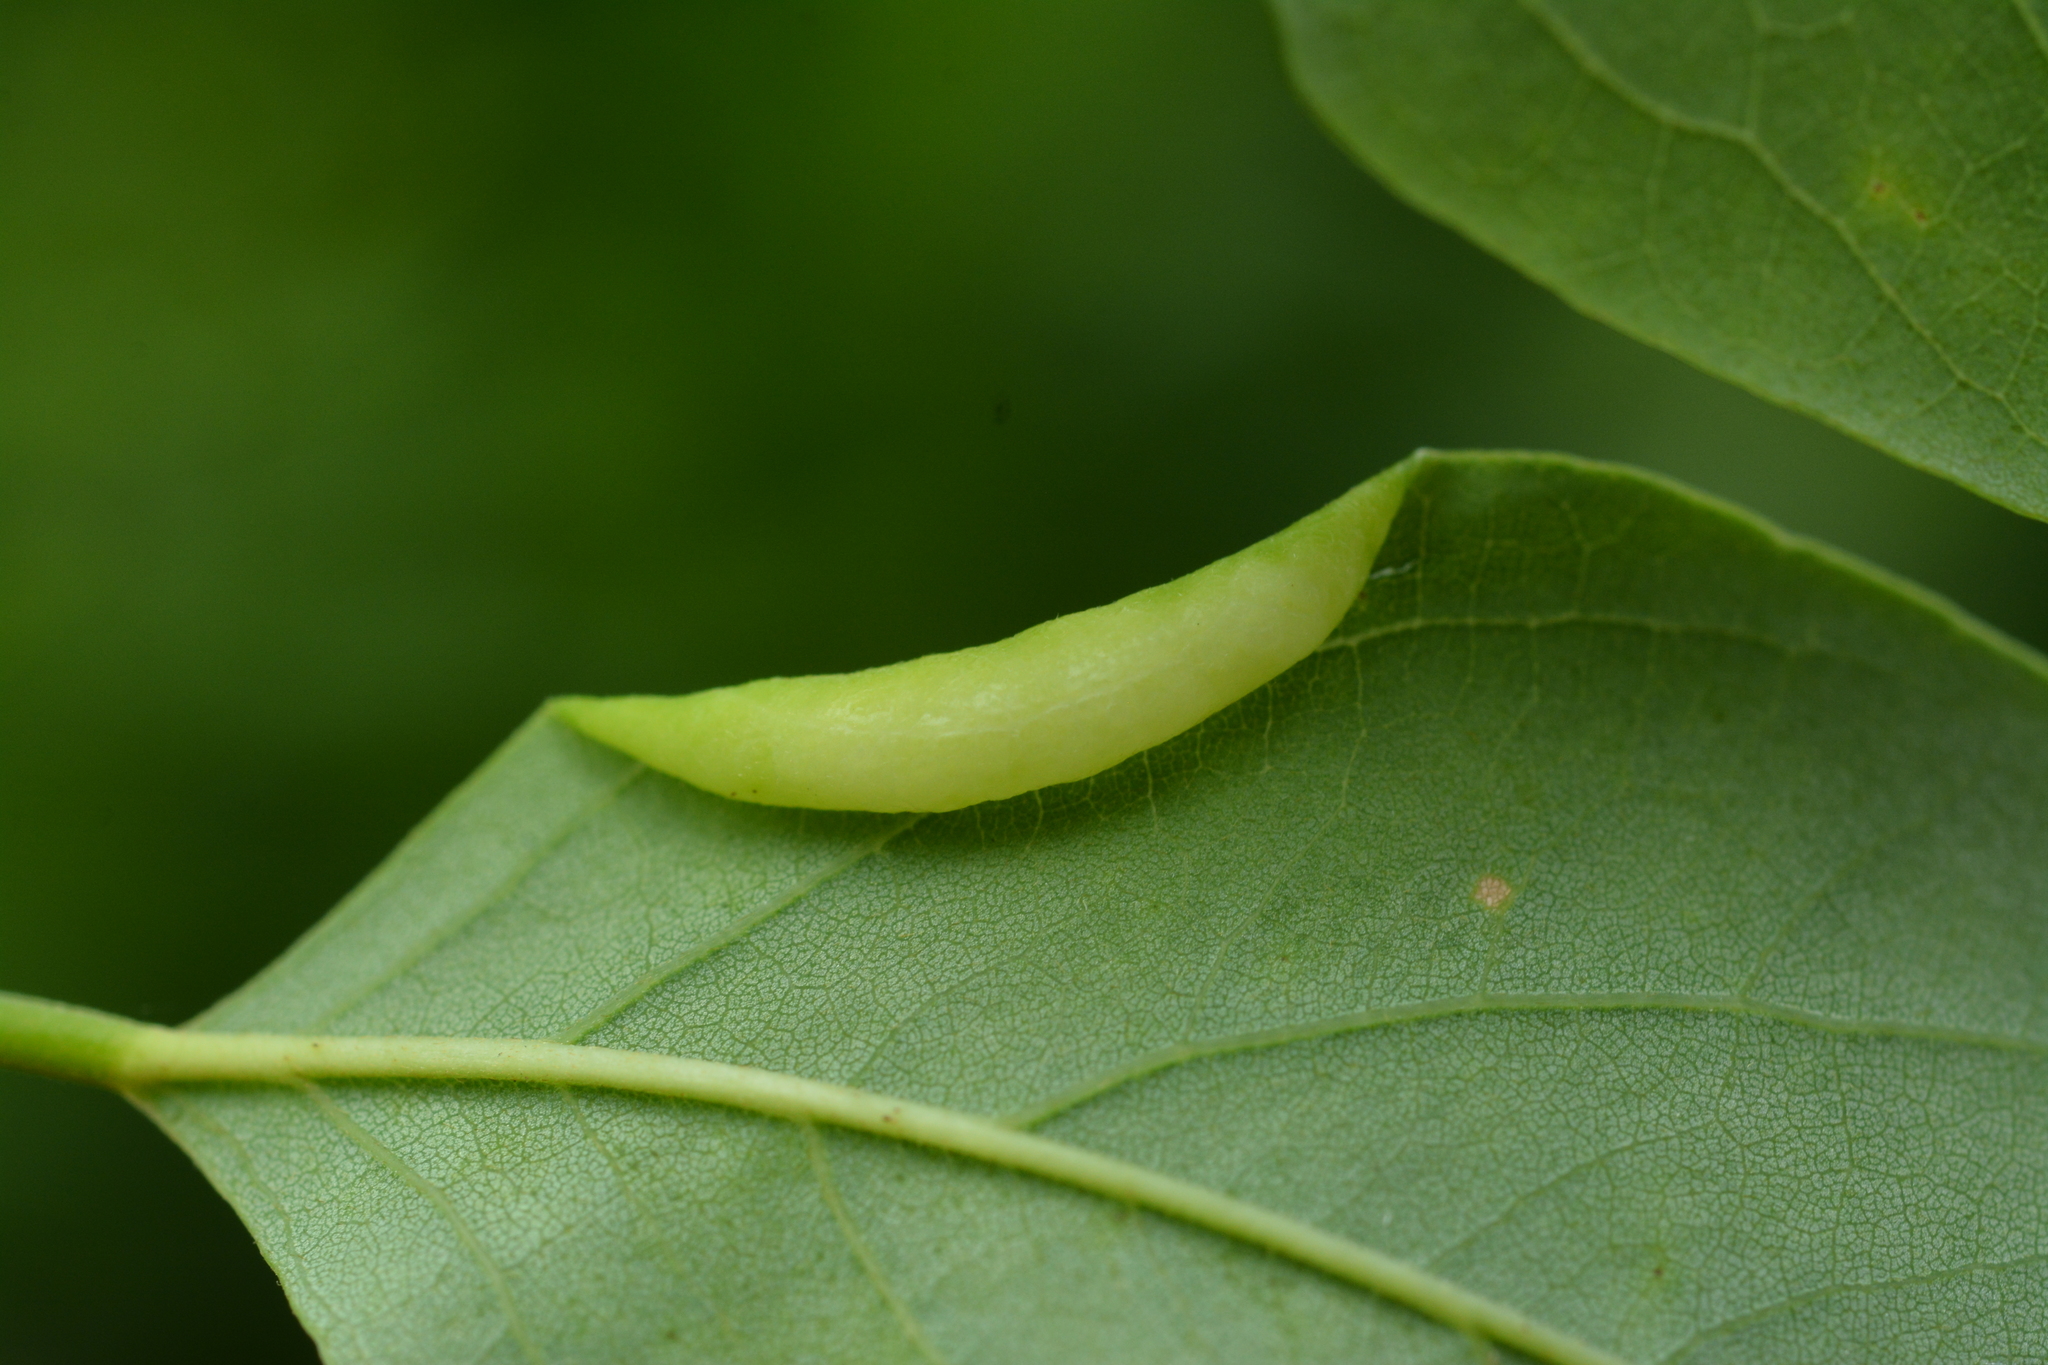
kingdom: Animalia
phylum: Arthropoda
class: Insecta
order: Diptera
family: Cecidomyiidae
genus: Obolodiplosis
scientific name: Obolodiplosis robiniae
